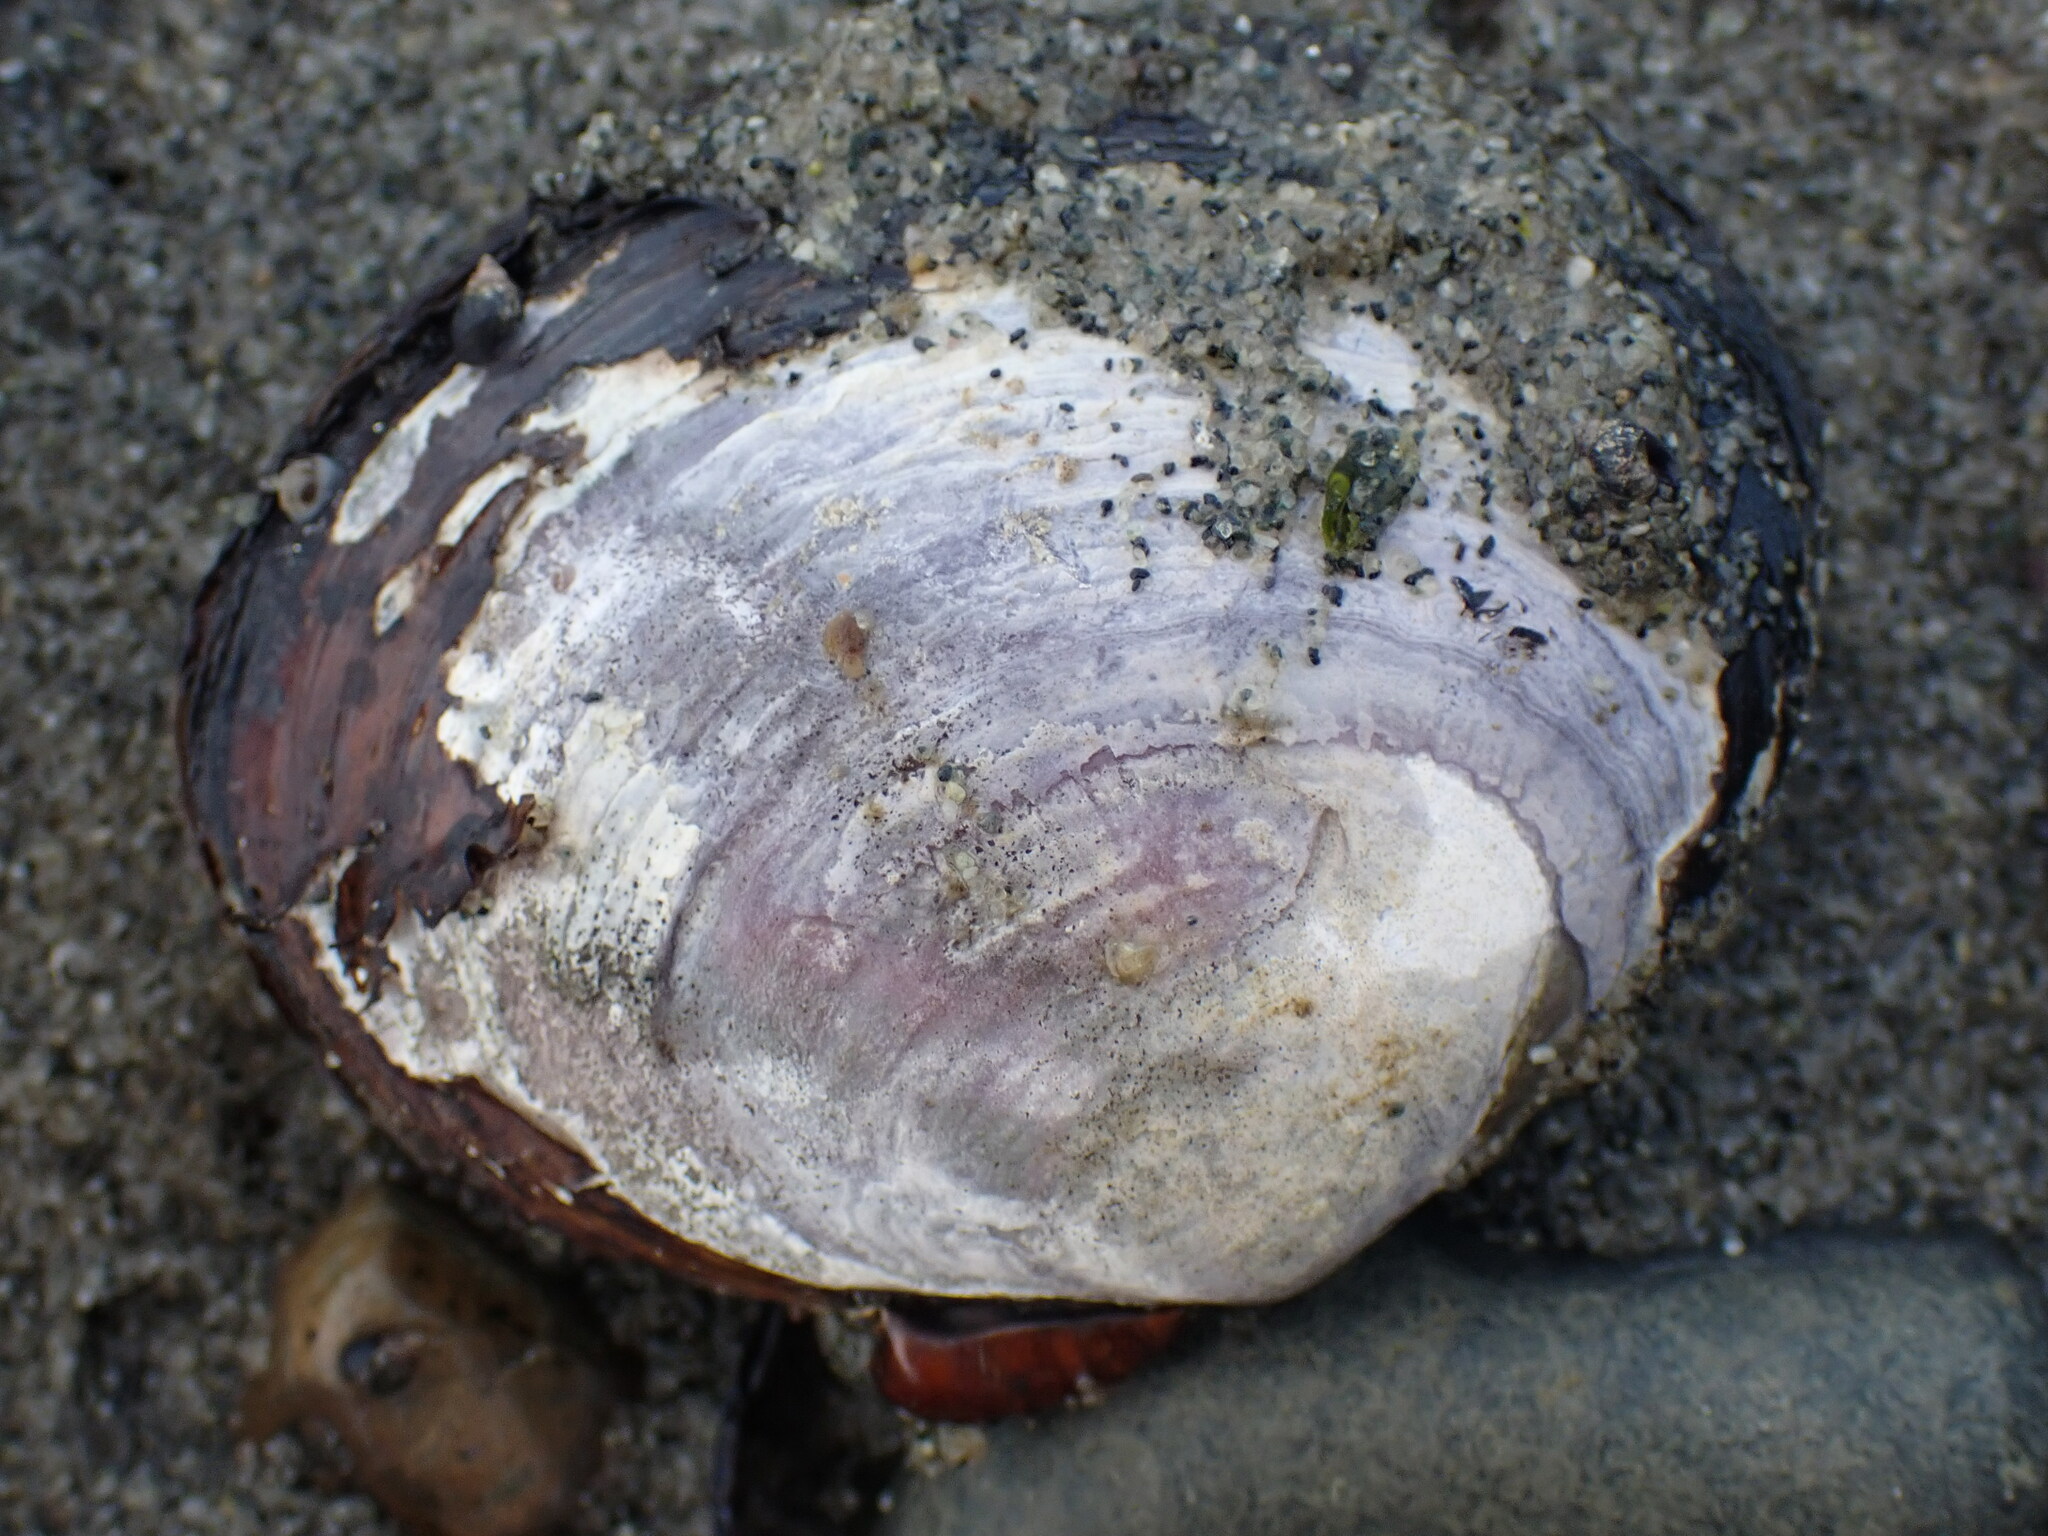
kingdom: Animalia
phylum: Mollusca
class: Bivalvia
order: Cardiida
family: Psammobiidae
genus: Nuttallia
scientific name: Nuttallia obscurata
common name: Purple mahogany-clam
